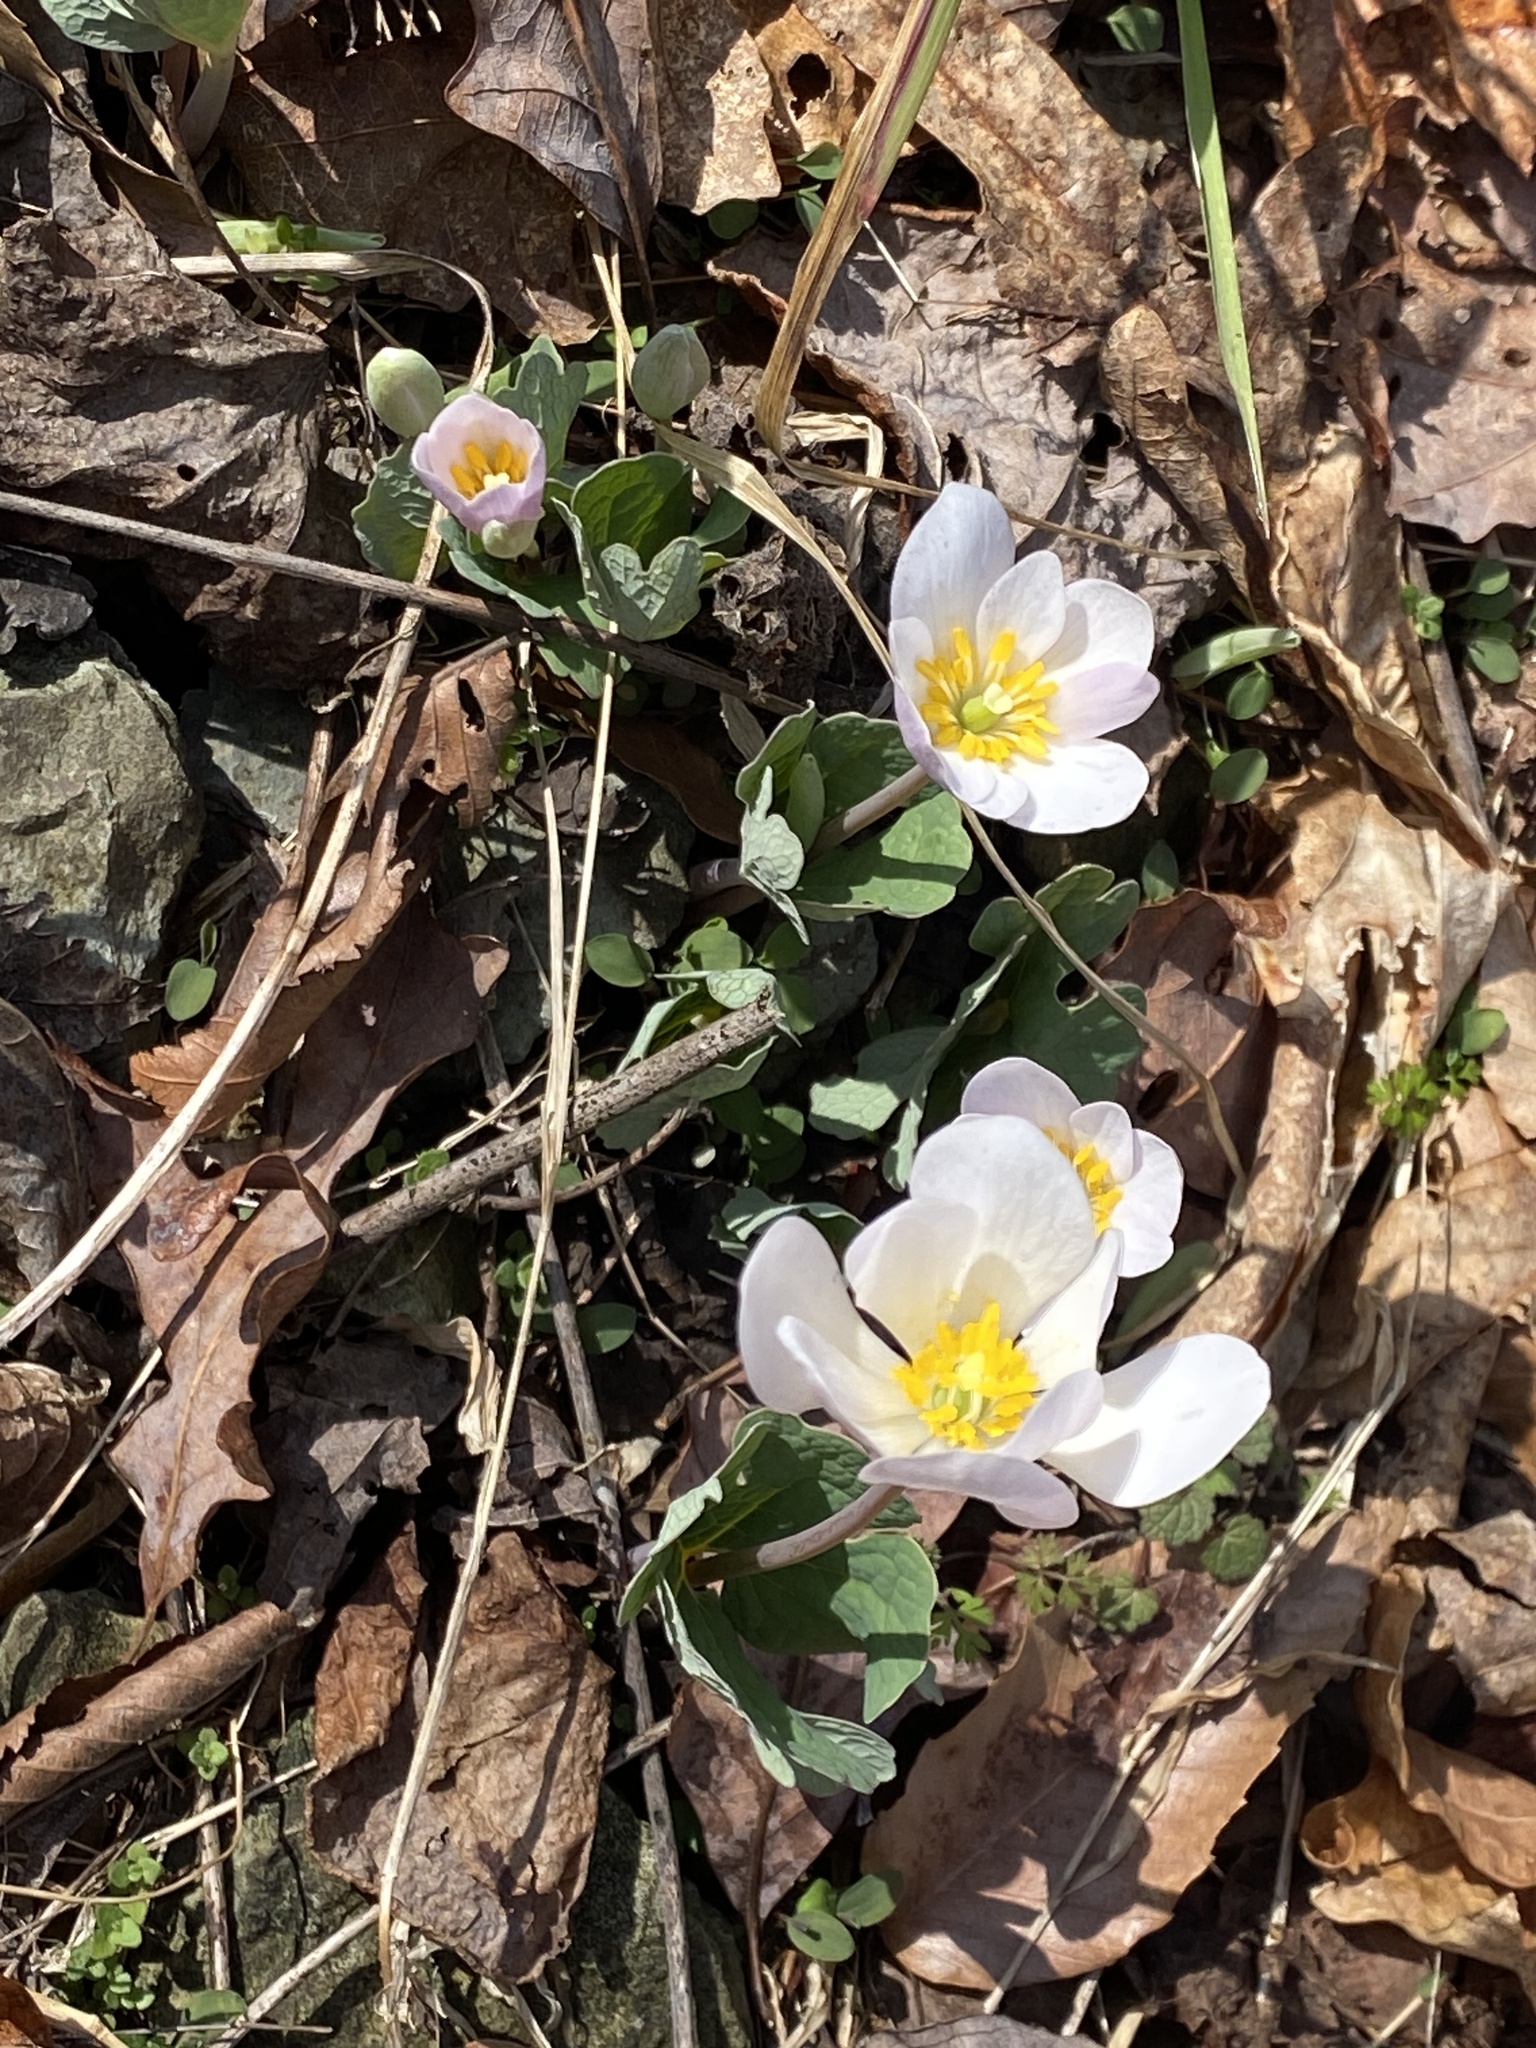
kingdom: Plantae
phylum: Tracheophyta
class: Magnoliopsida
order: Ranunculales
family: Papaveraceae
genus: Sanguinaria
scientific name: Sanguinaria canadensis
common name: Bloodroot
